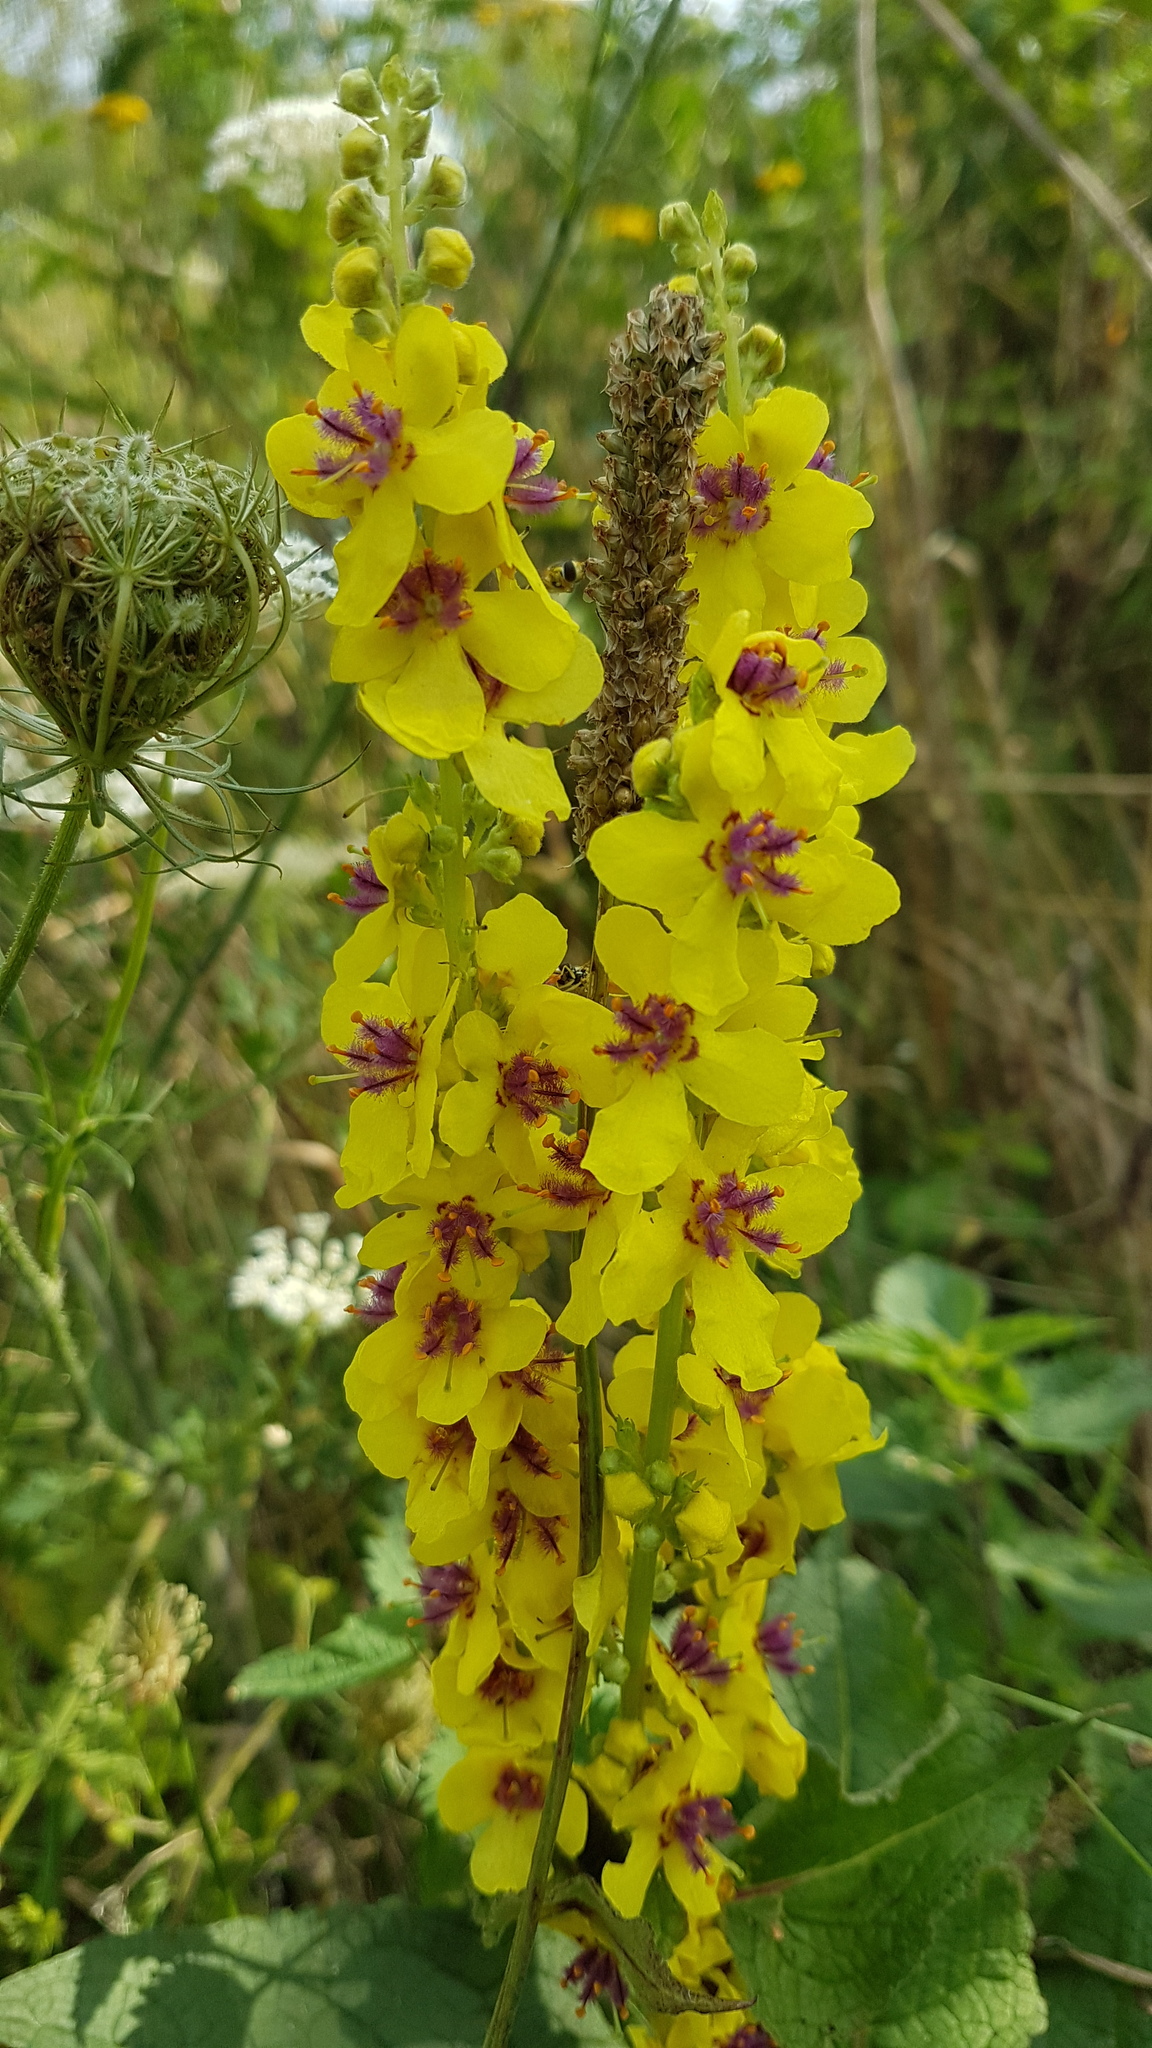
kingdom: Plantae
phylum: Tracheophyta
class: Magnoliopsida
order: Lamiales
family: Scrophulariaceae
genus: Verbascum
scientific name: Verbascum nigrum
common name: Dark mullein
